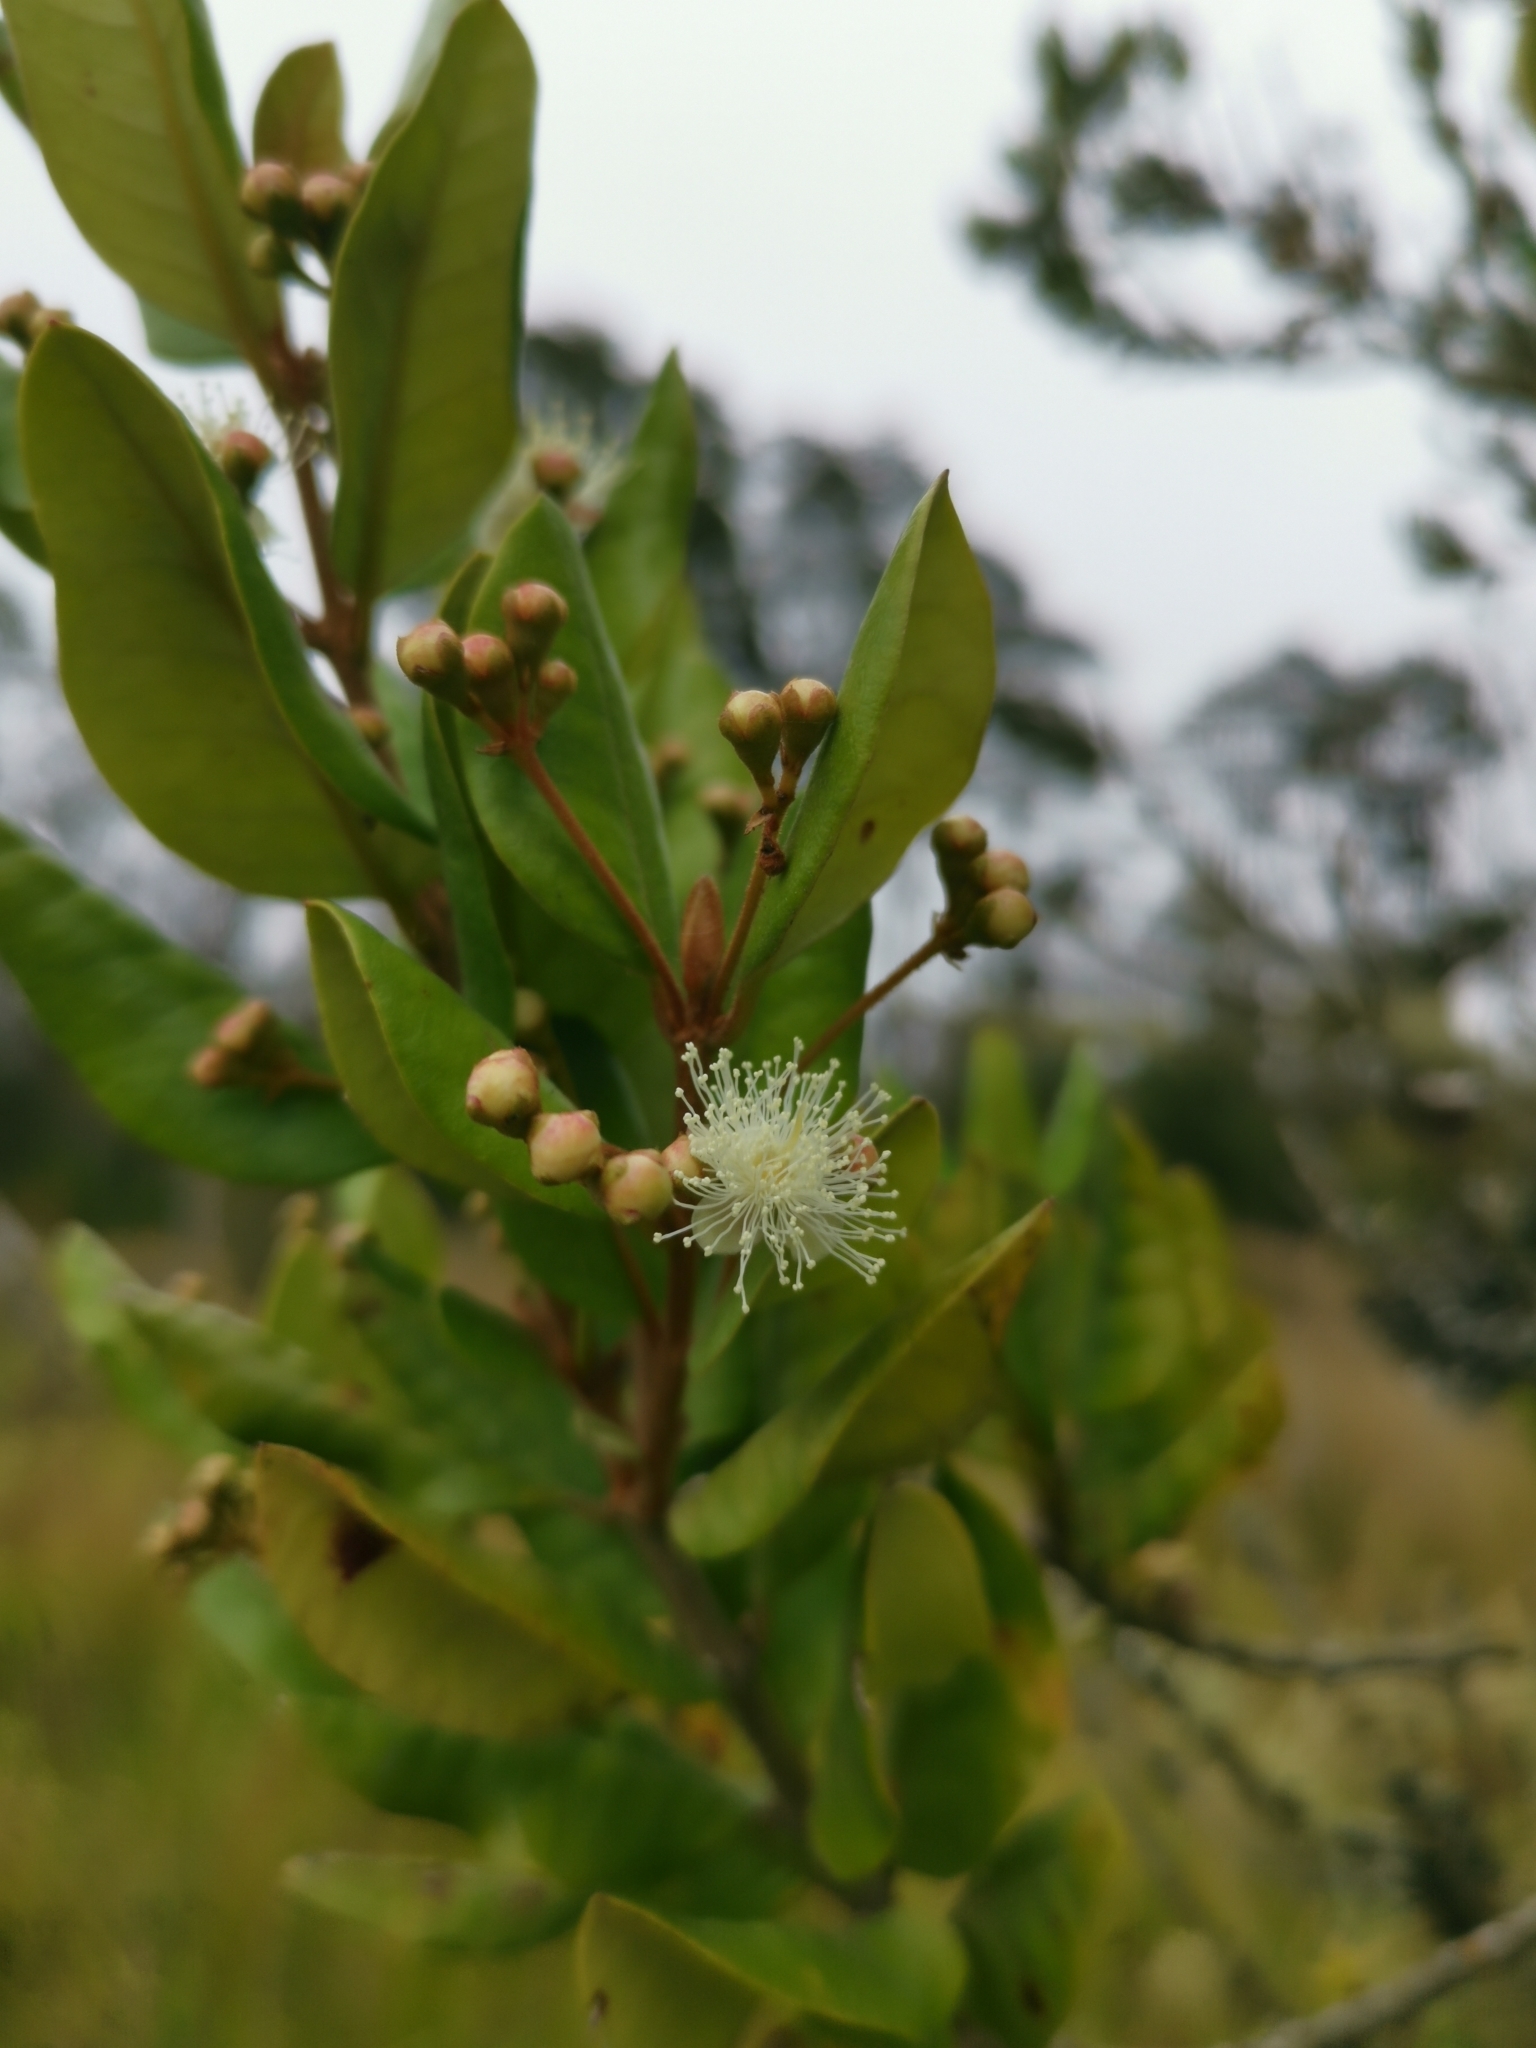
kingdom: Plantae
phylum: Tracheophyta
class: Magnoliopsida
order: Myrtales
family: Myrtaceae
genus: Myrceugenia
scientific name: Myrceugenia exsucca
